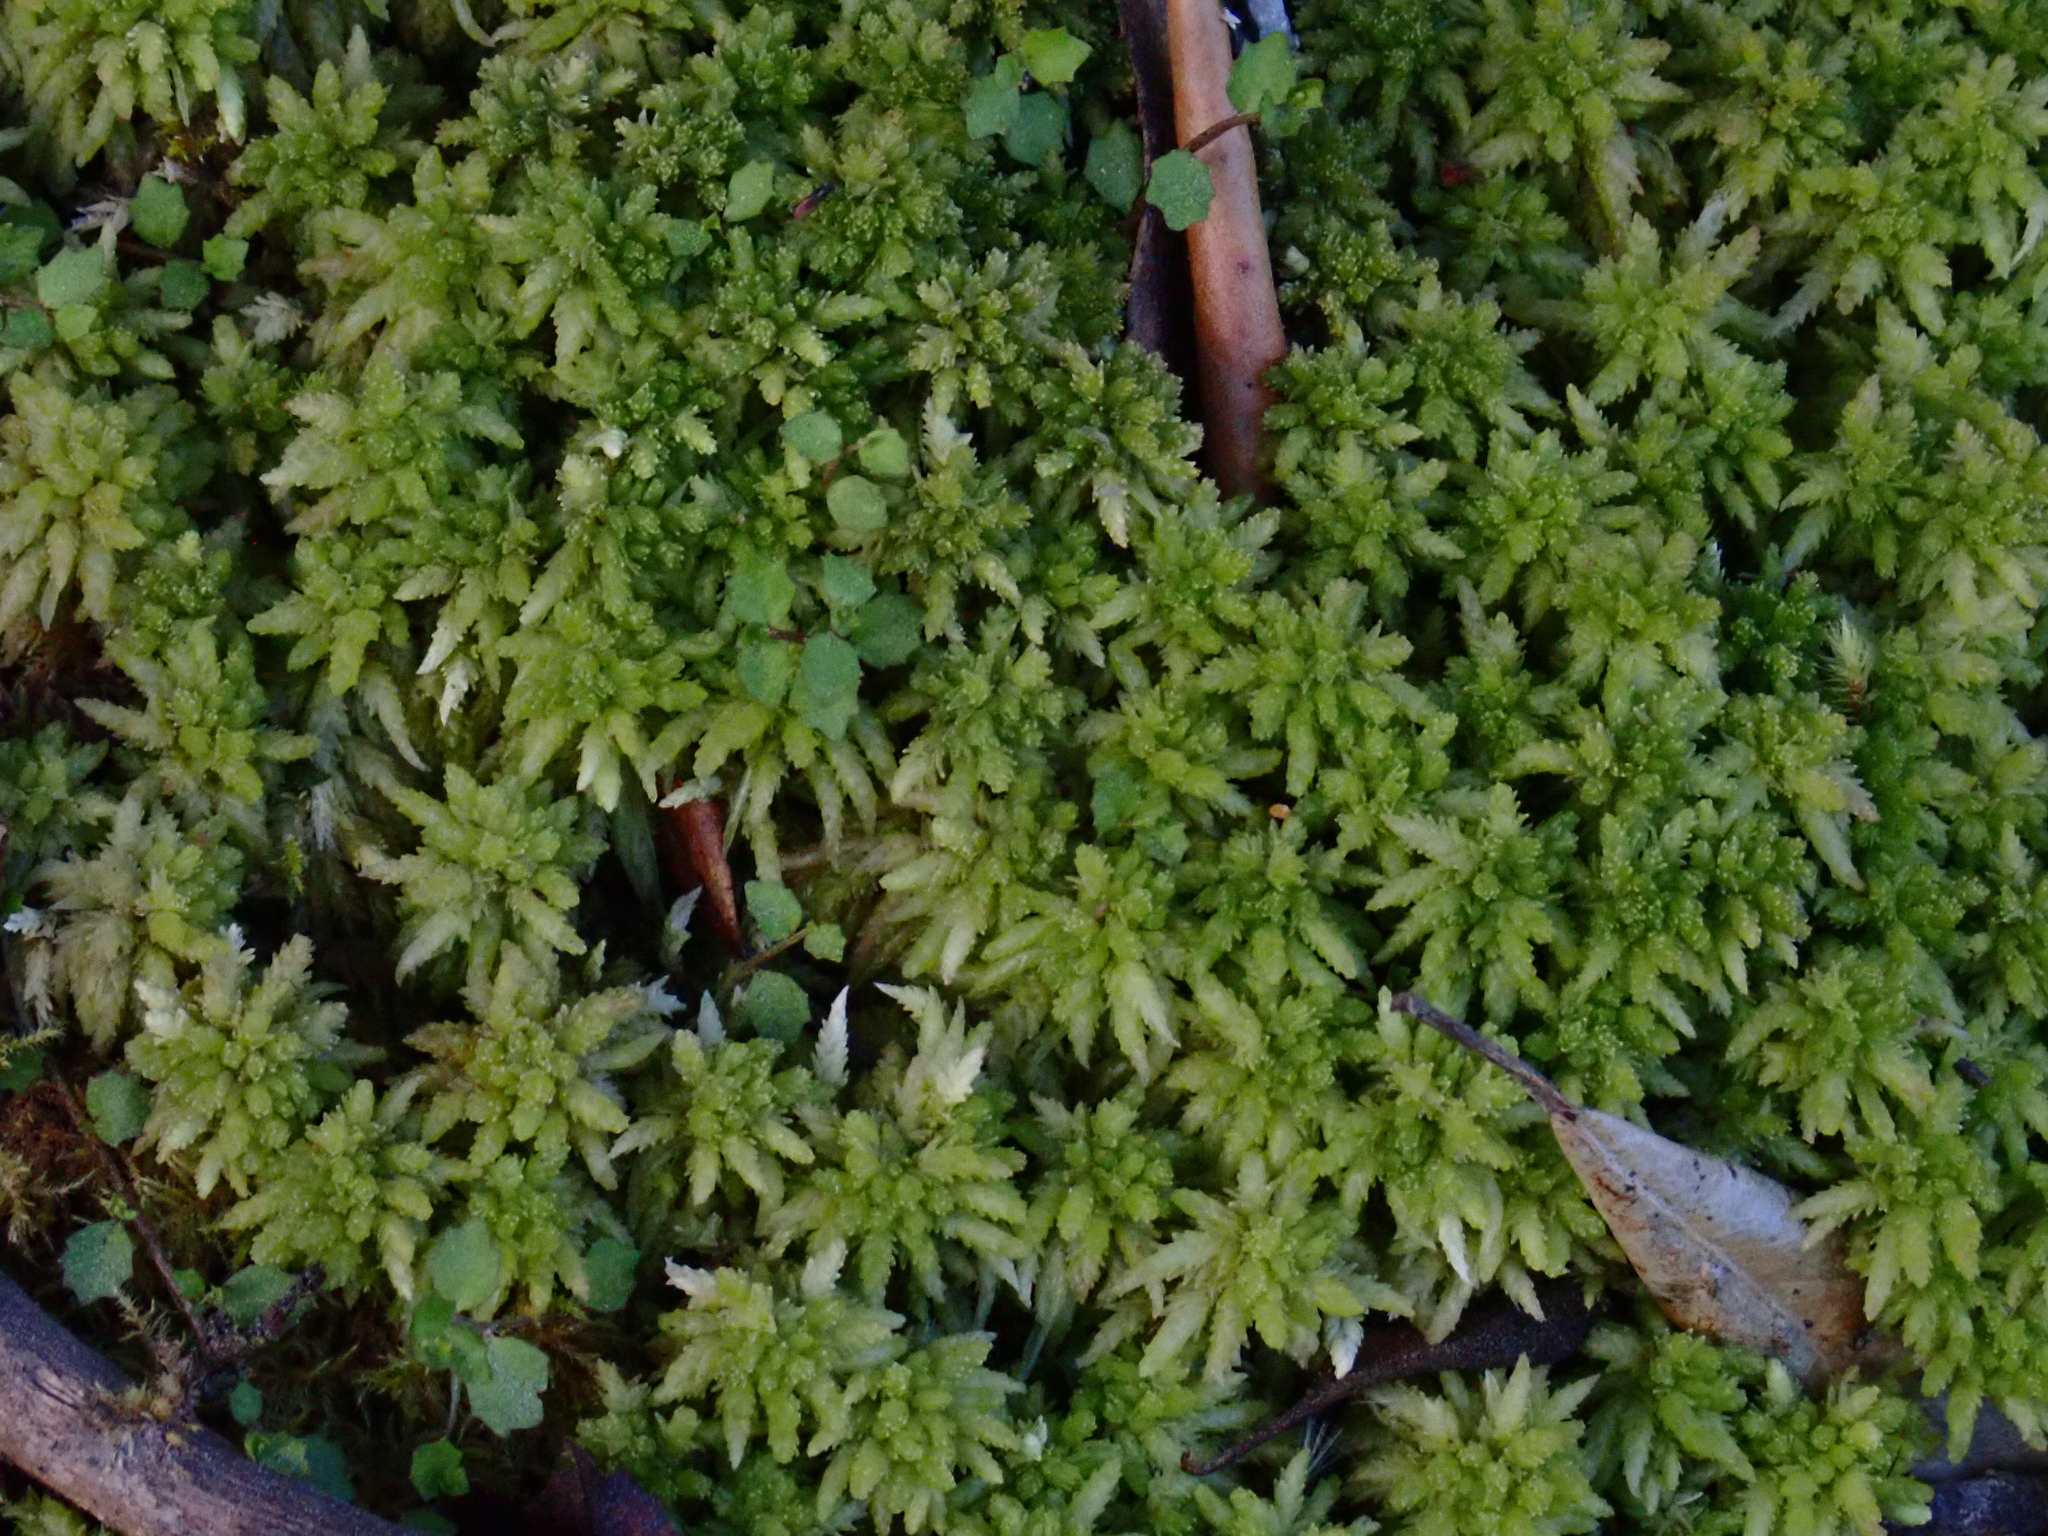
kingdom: Plantae
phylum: Bryophyta
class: Sphagnopsida
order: Sphagnales
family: Sphagnaceae
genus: Sphagnum
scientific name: Sphagnum cristatum
